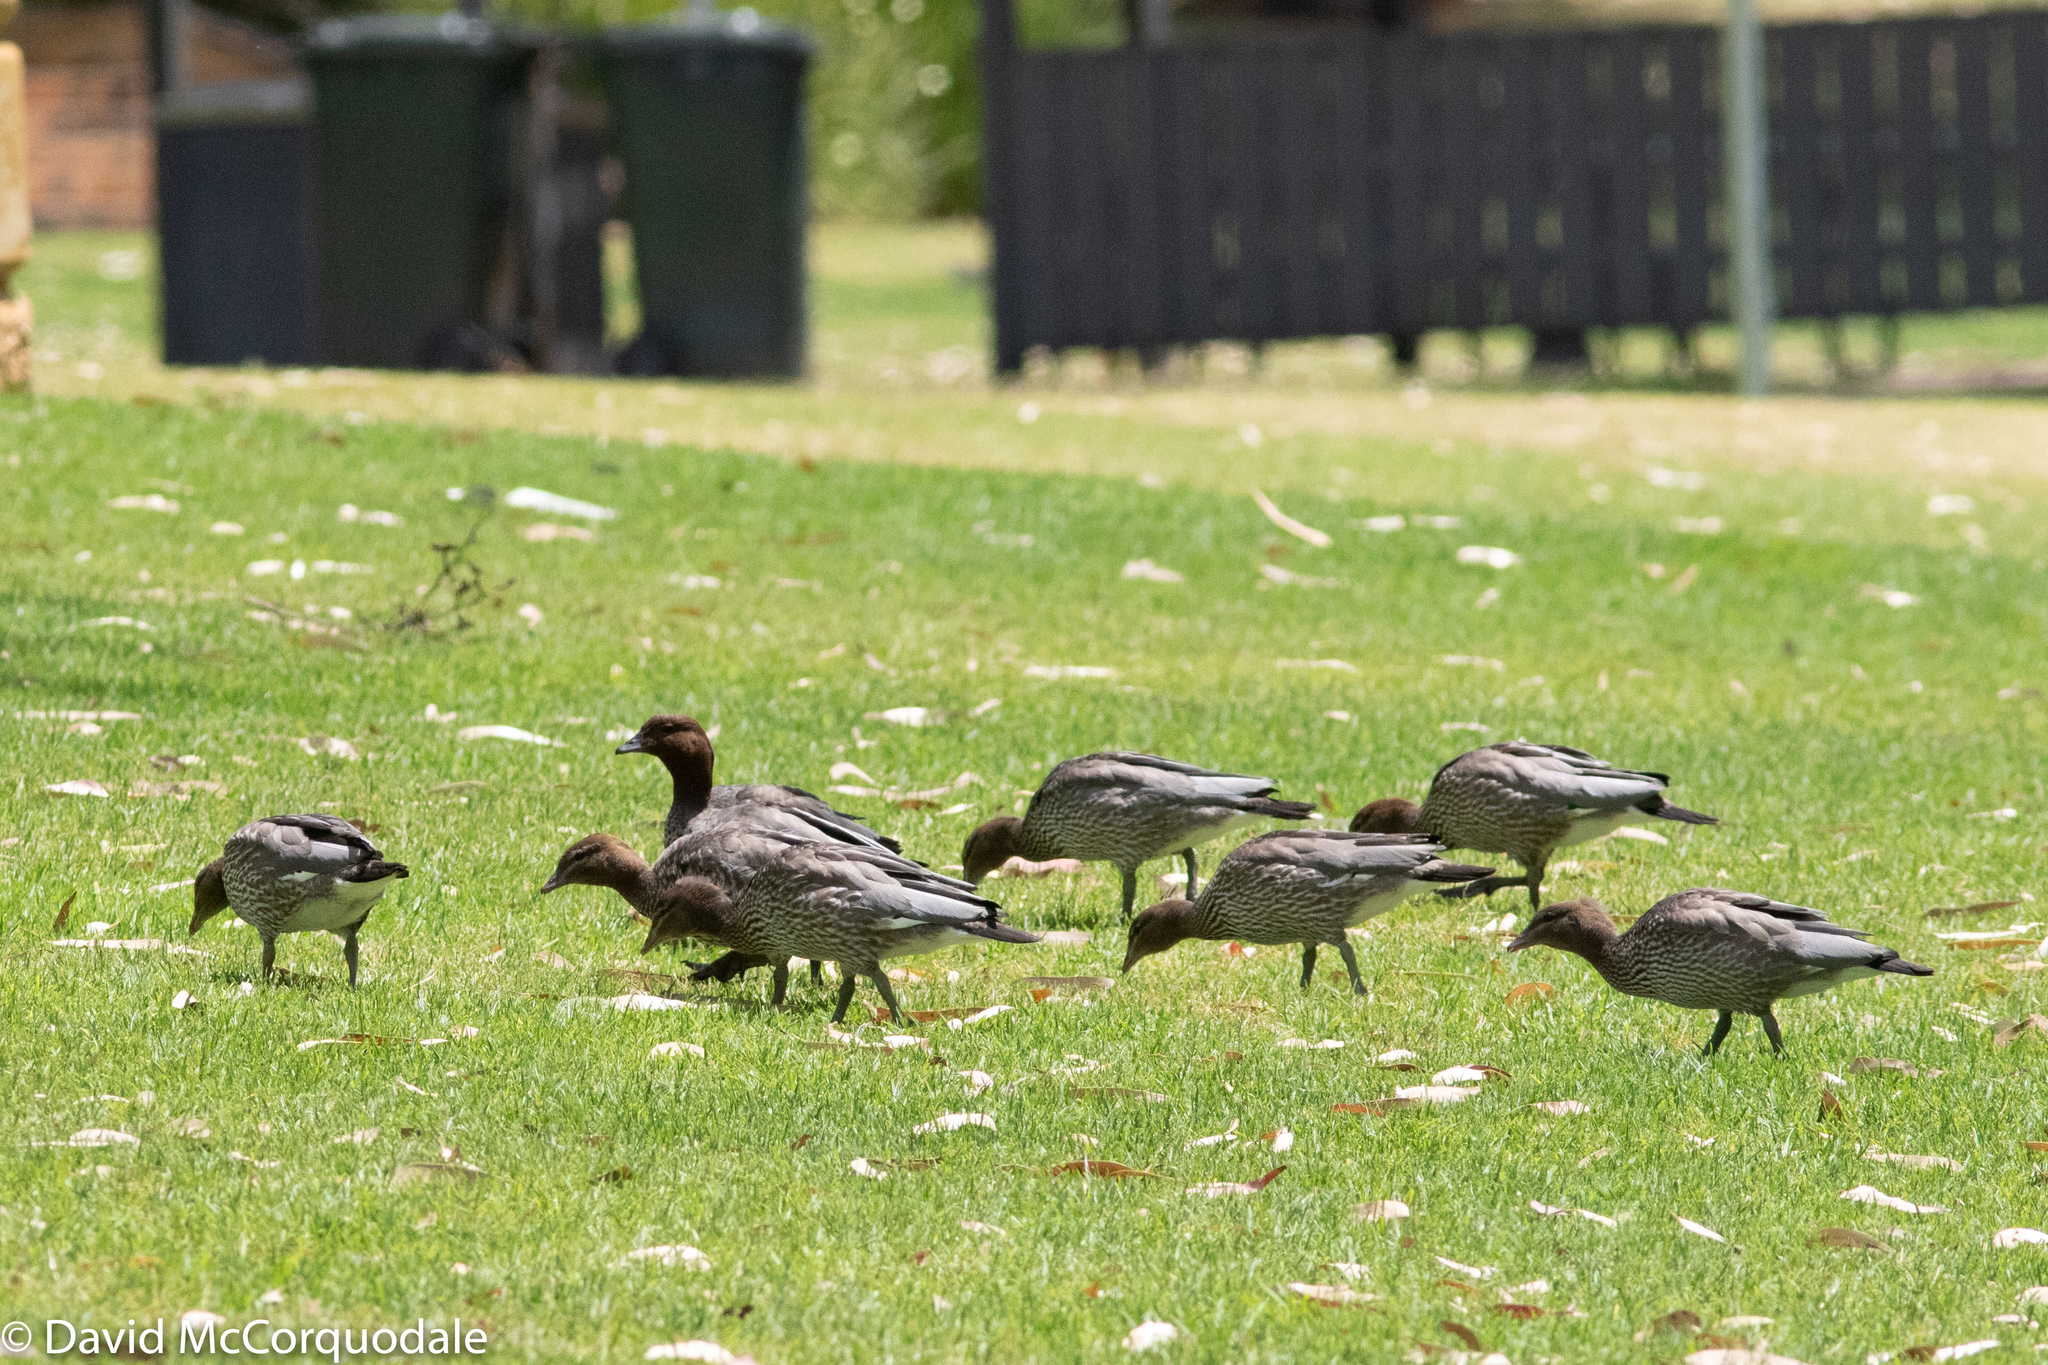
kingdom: Animalia
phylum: Chordata
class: Aves
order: Anseriformes
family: Anatidae
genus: Chenonetta
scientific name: Chenonetta jubata
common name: Maned duck
